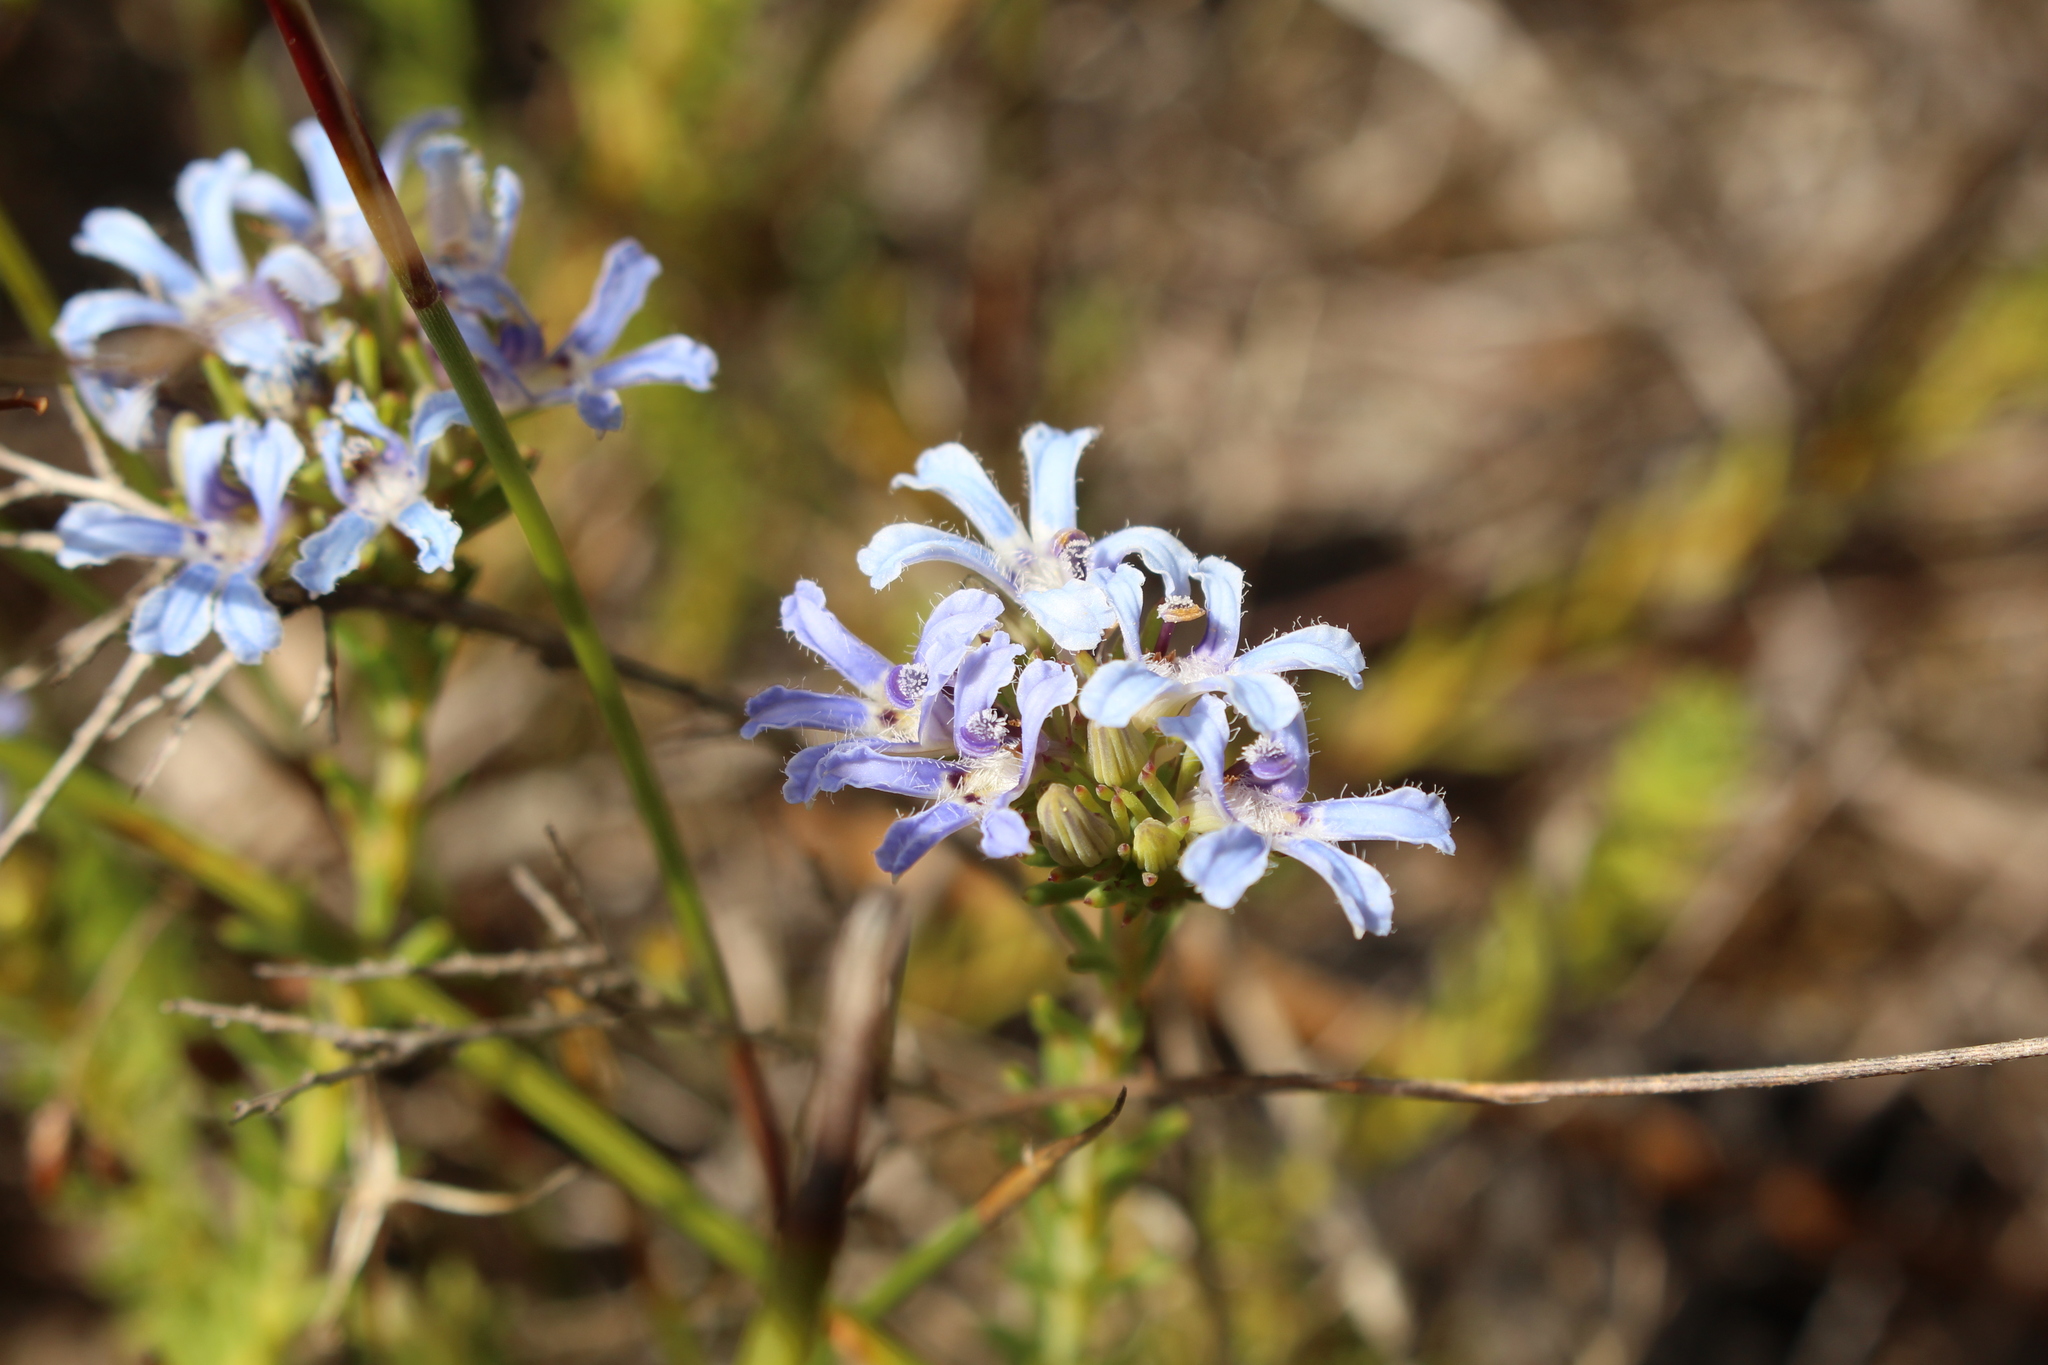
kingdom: Plantae
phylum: Tracheophyta
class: Magnoliopsida
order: Asterales
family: Goodeniaceae
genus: Lechenaultia
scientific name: Lechenaultia expansa
